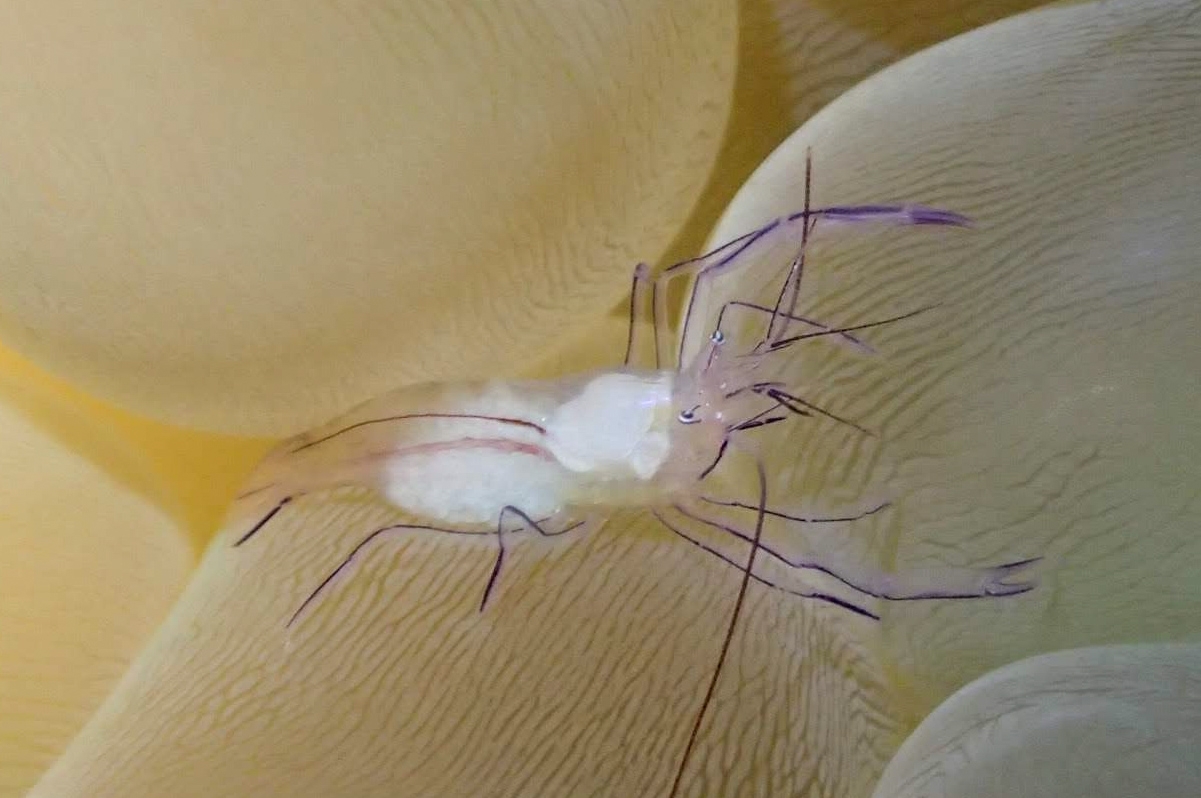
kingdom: Animalia
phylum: Arthropoda
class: Malacostraca
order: Decapoda
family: Palaemonidae
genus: Vir
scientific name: Vir philippinensis
